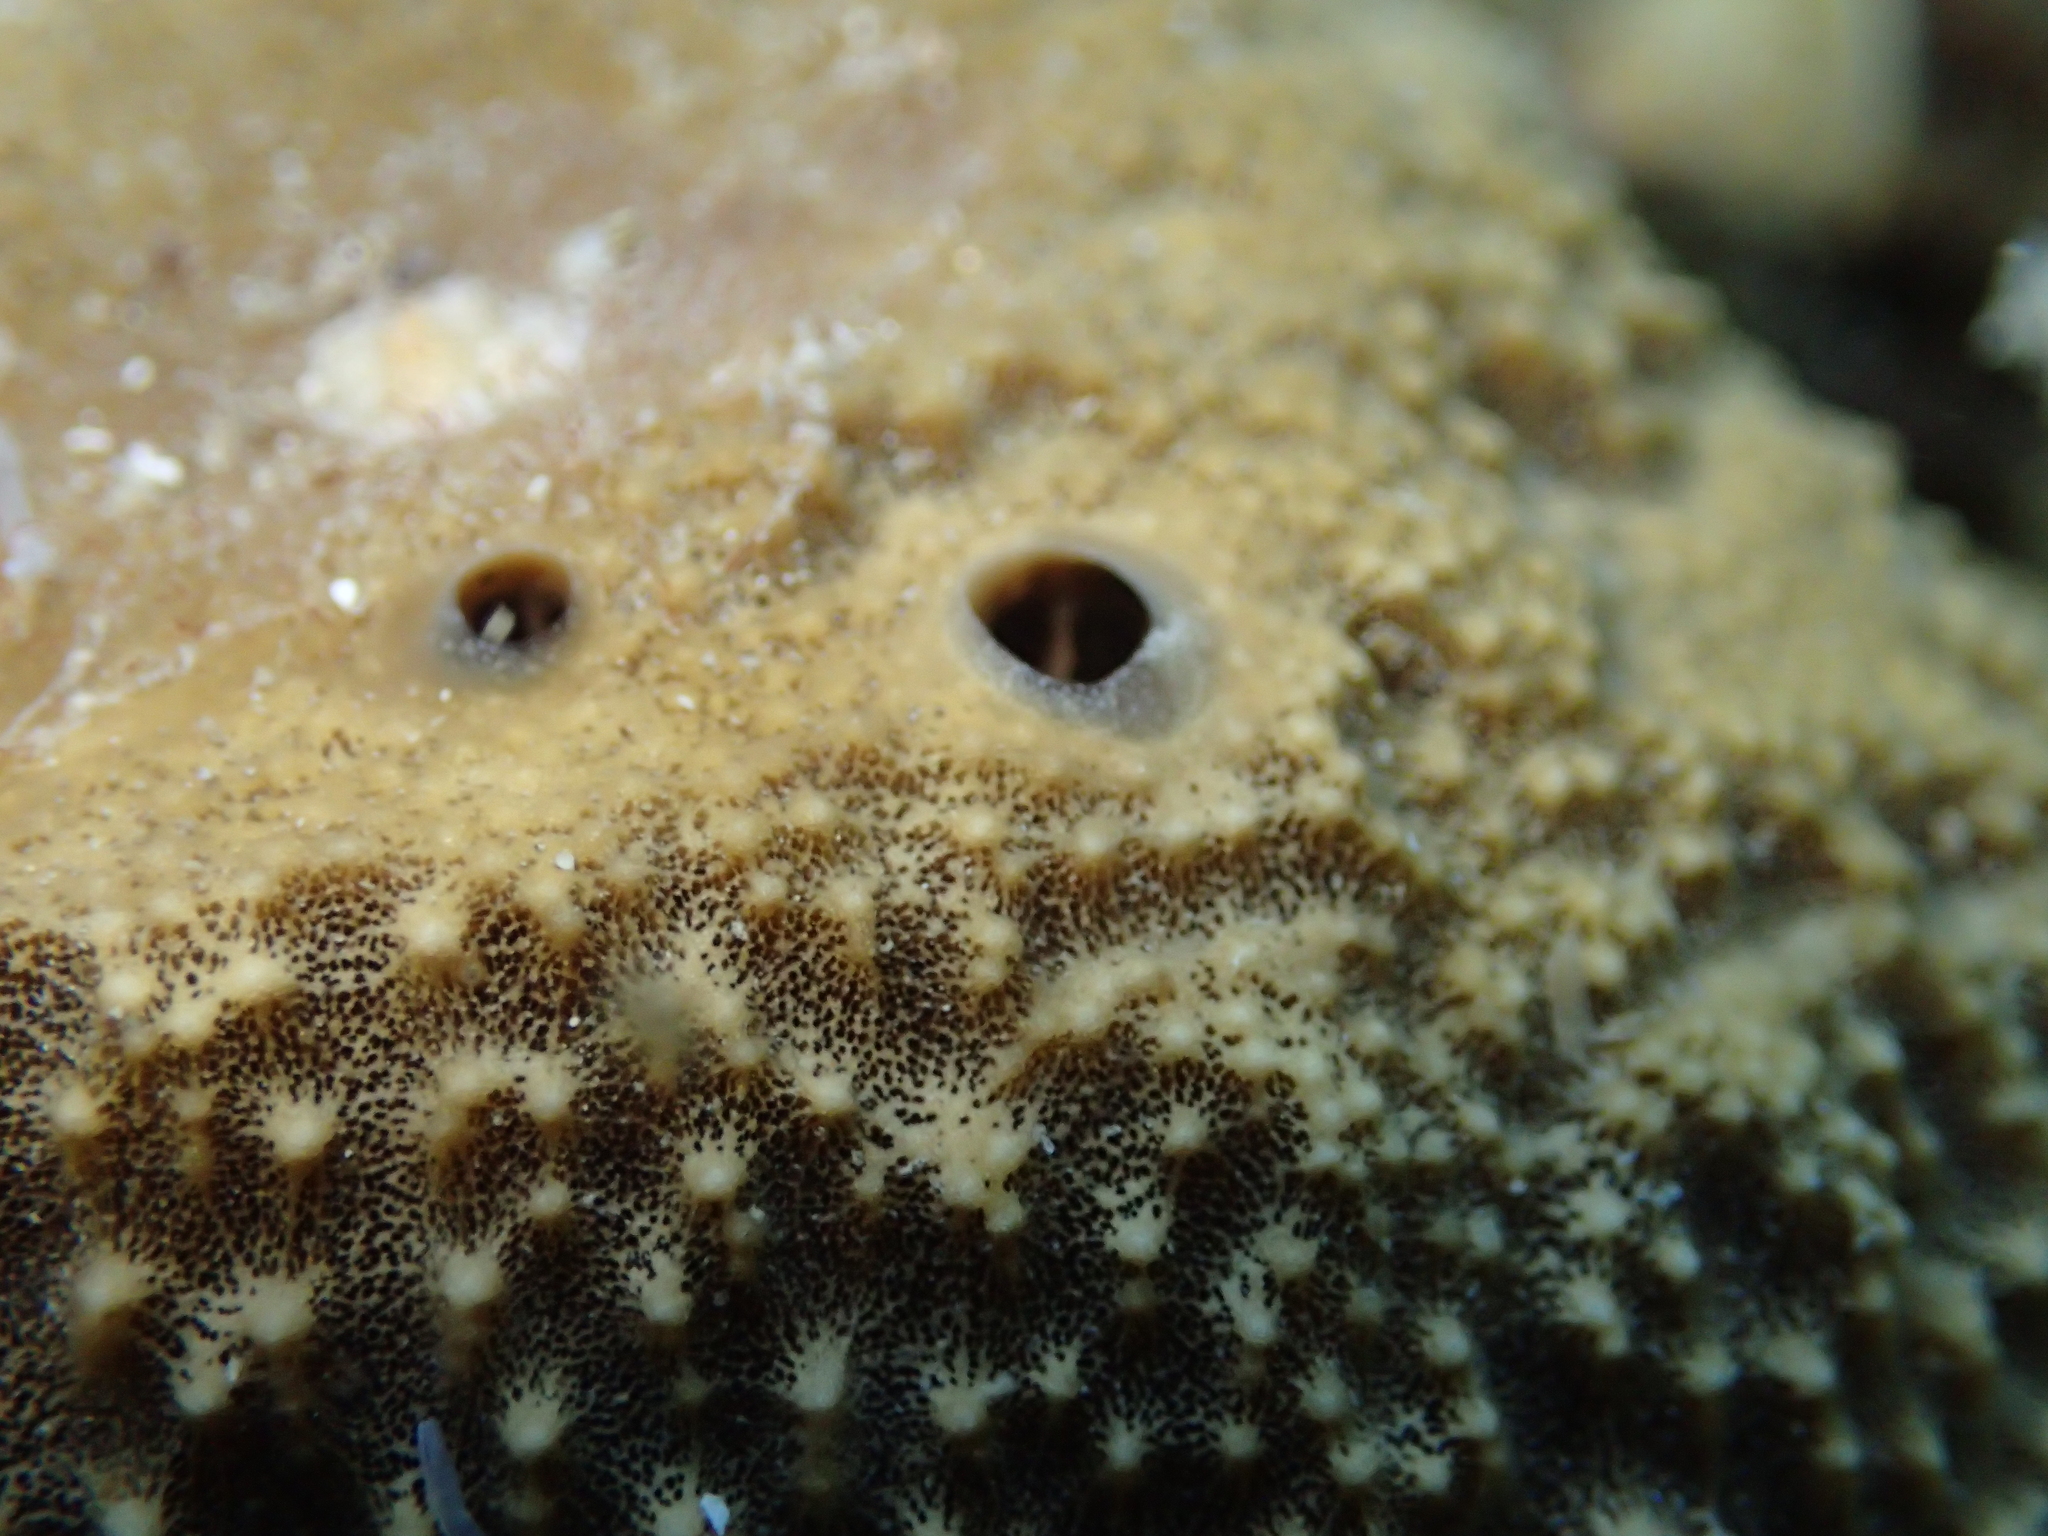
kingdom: Animalia
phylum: Porifera
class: Demospongiae
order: Dictyoceratida
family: Irciniidae
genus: Sarcotragus
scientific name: Sarcotragus fasciculatus
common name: Stinker sponge
